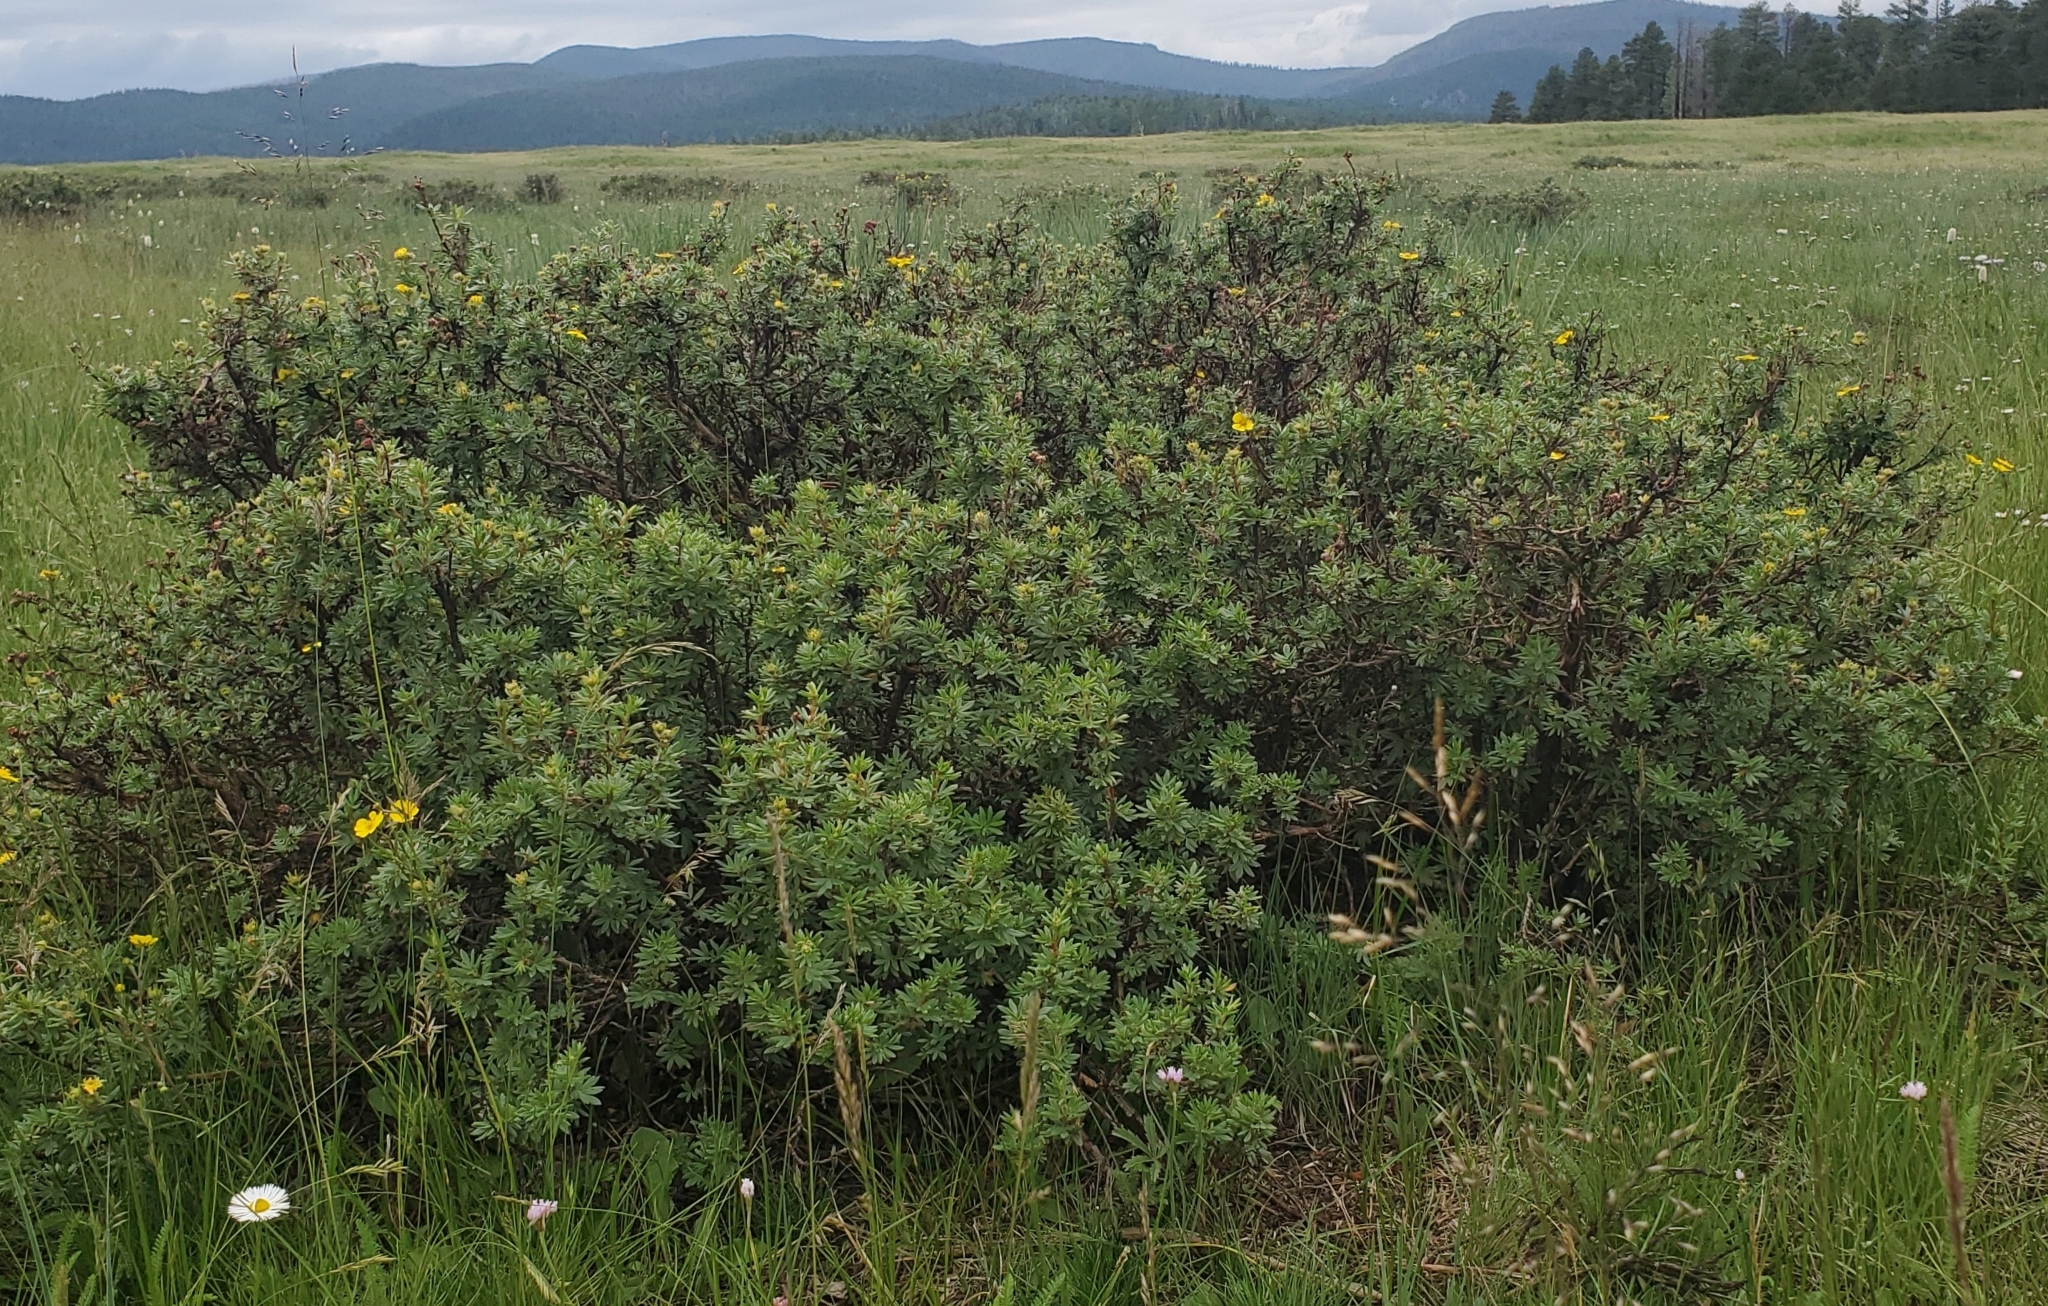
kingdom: Plantae
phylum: Tracheophyta
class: Magnoliopsida
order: Rosales
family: Rosaceae
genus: Dasiphora
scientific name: Dasiphora fruticosa
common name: Shrubby cinquefoil
